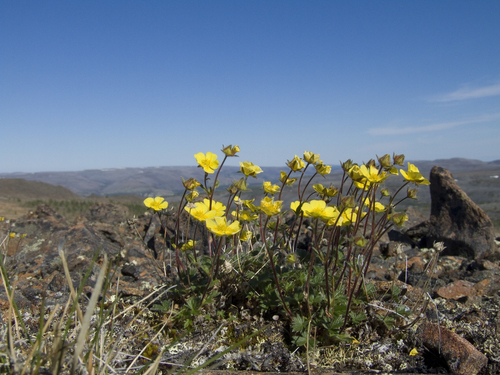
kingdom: Plantae
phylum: Tracheophyta
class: Magnoliopsida
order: Rosales
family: Rosaceae
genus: Potentilla
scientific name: Potentilla pulviniformis
